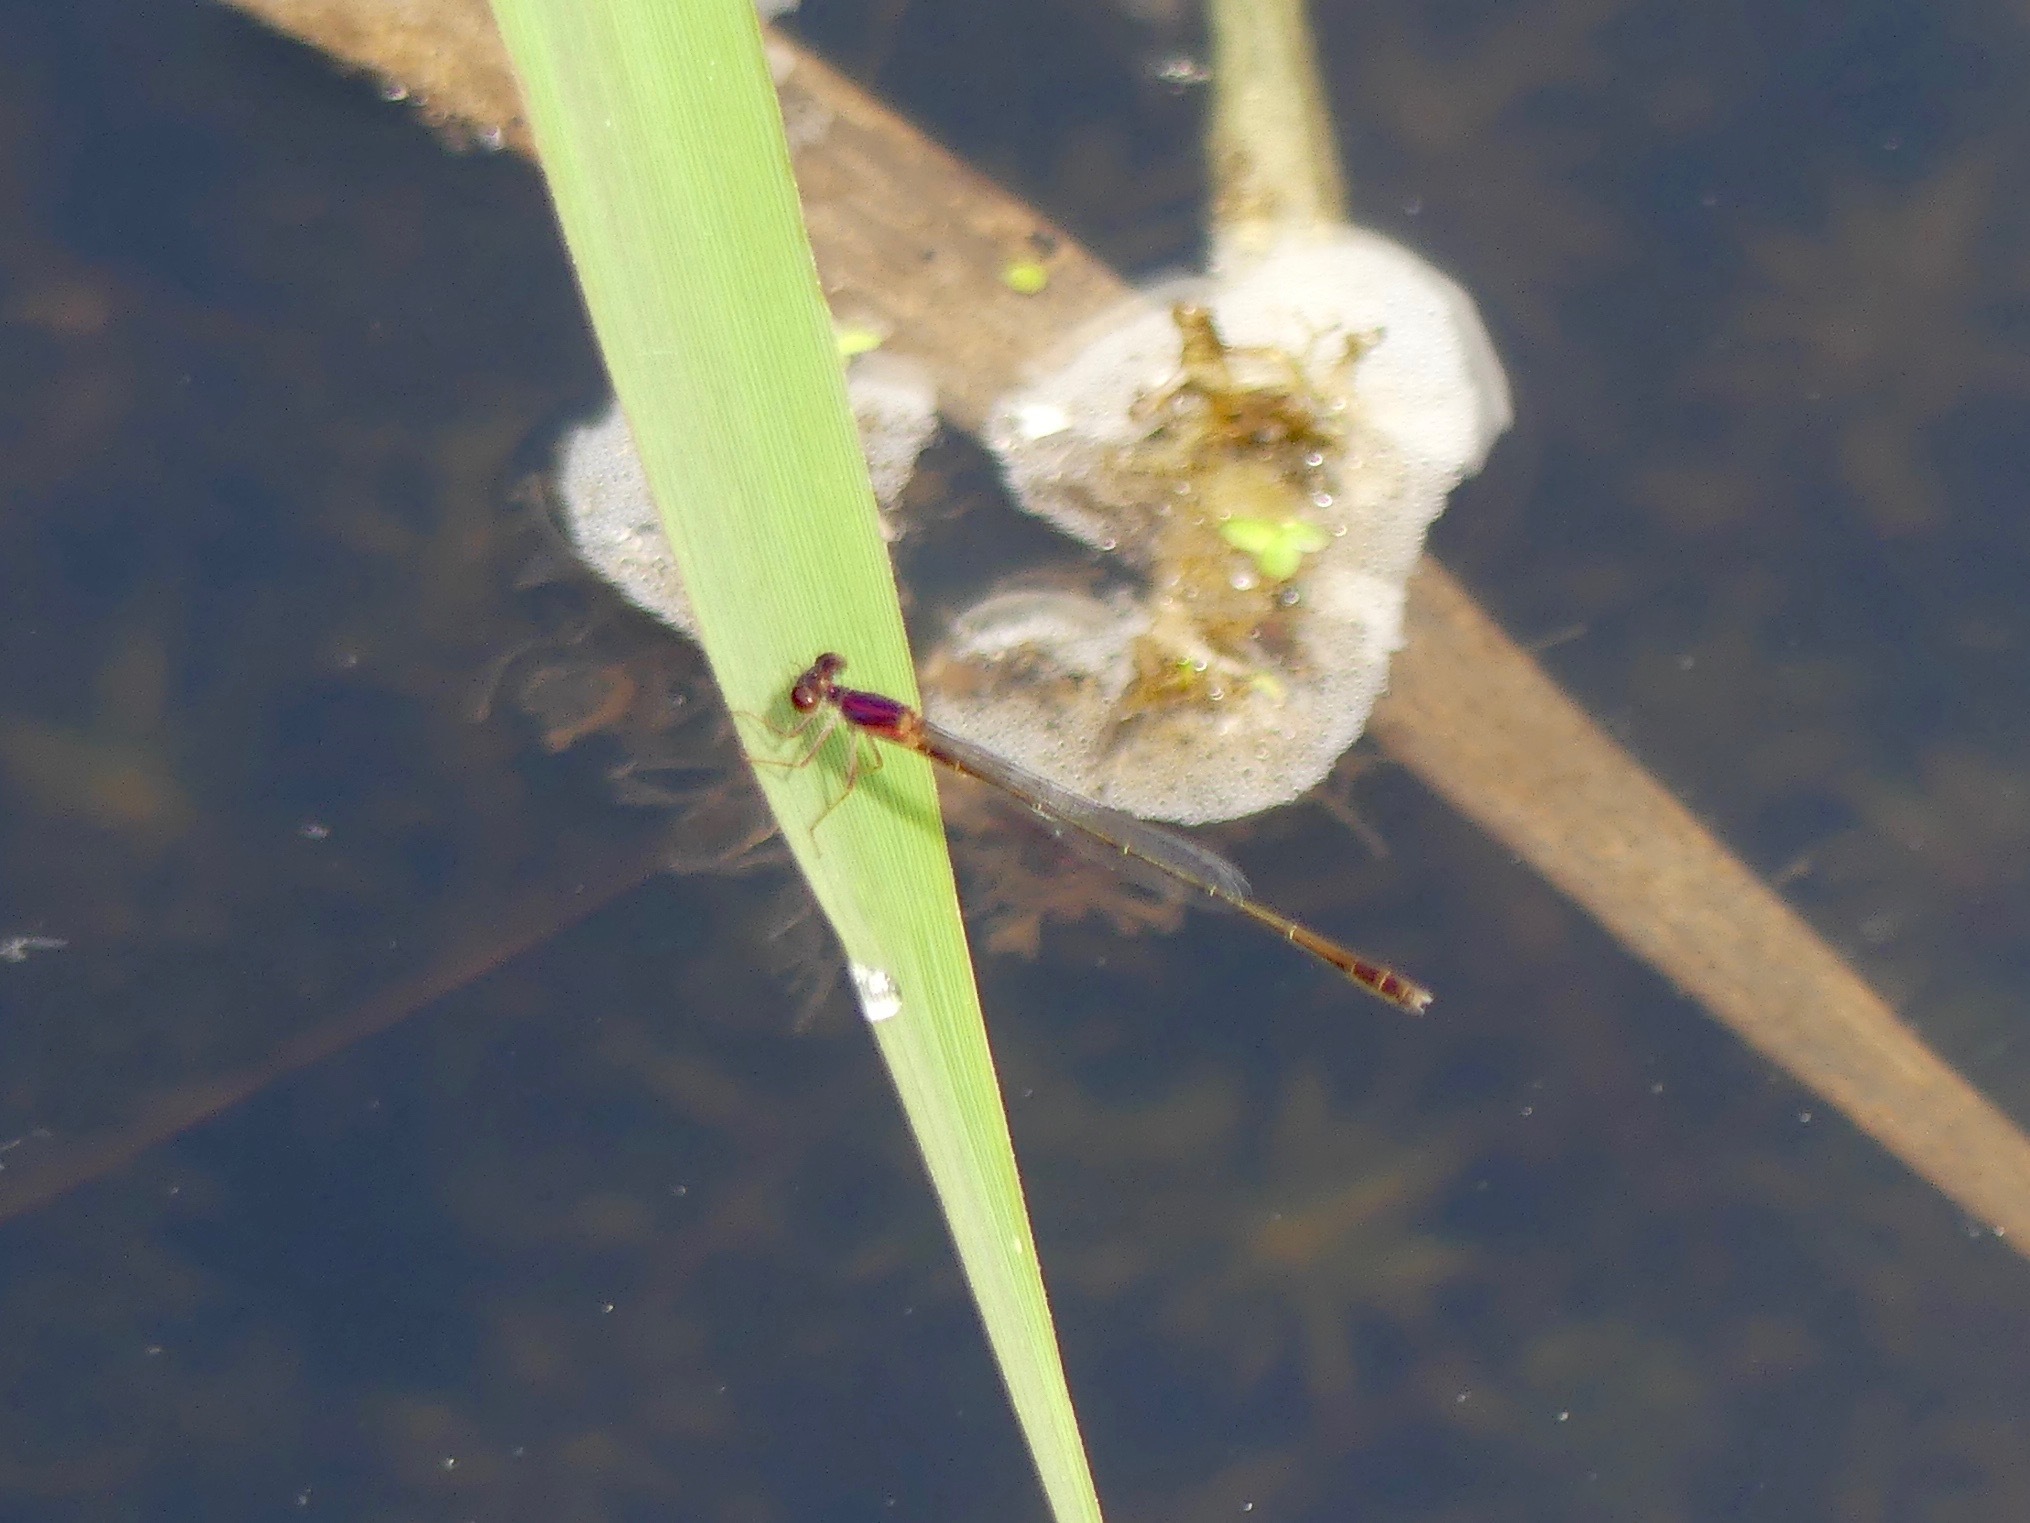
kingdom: Animalia
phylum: Arthropoda
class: Insecta
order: Odonata
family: Coenagrionidae
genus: Enallagma
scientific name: Enallagma dubium
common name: Burgundy bluet
